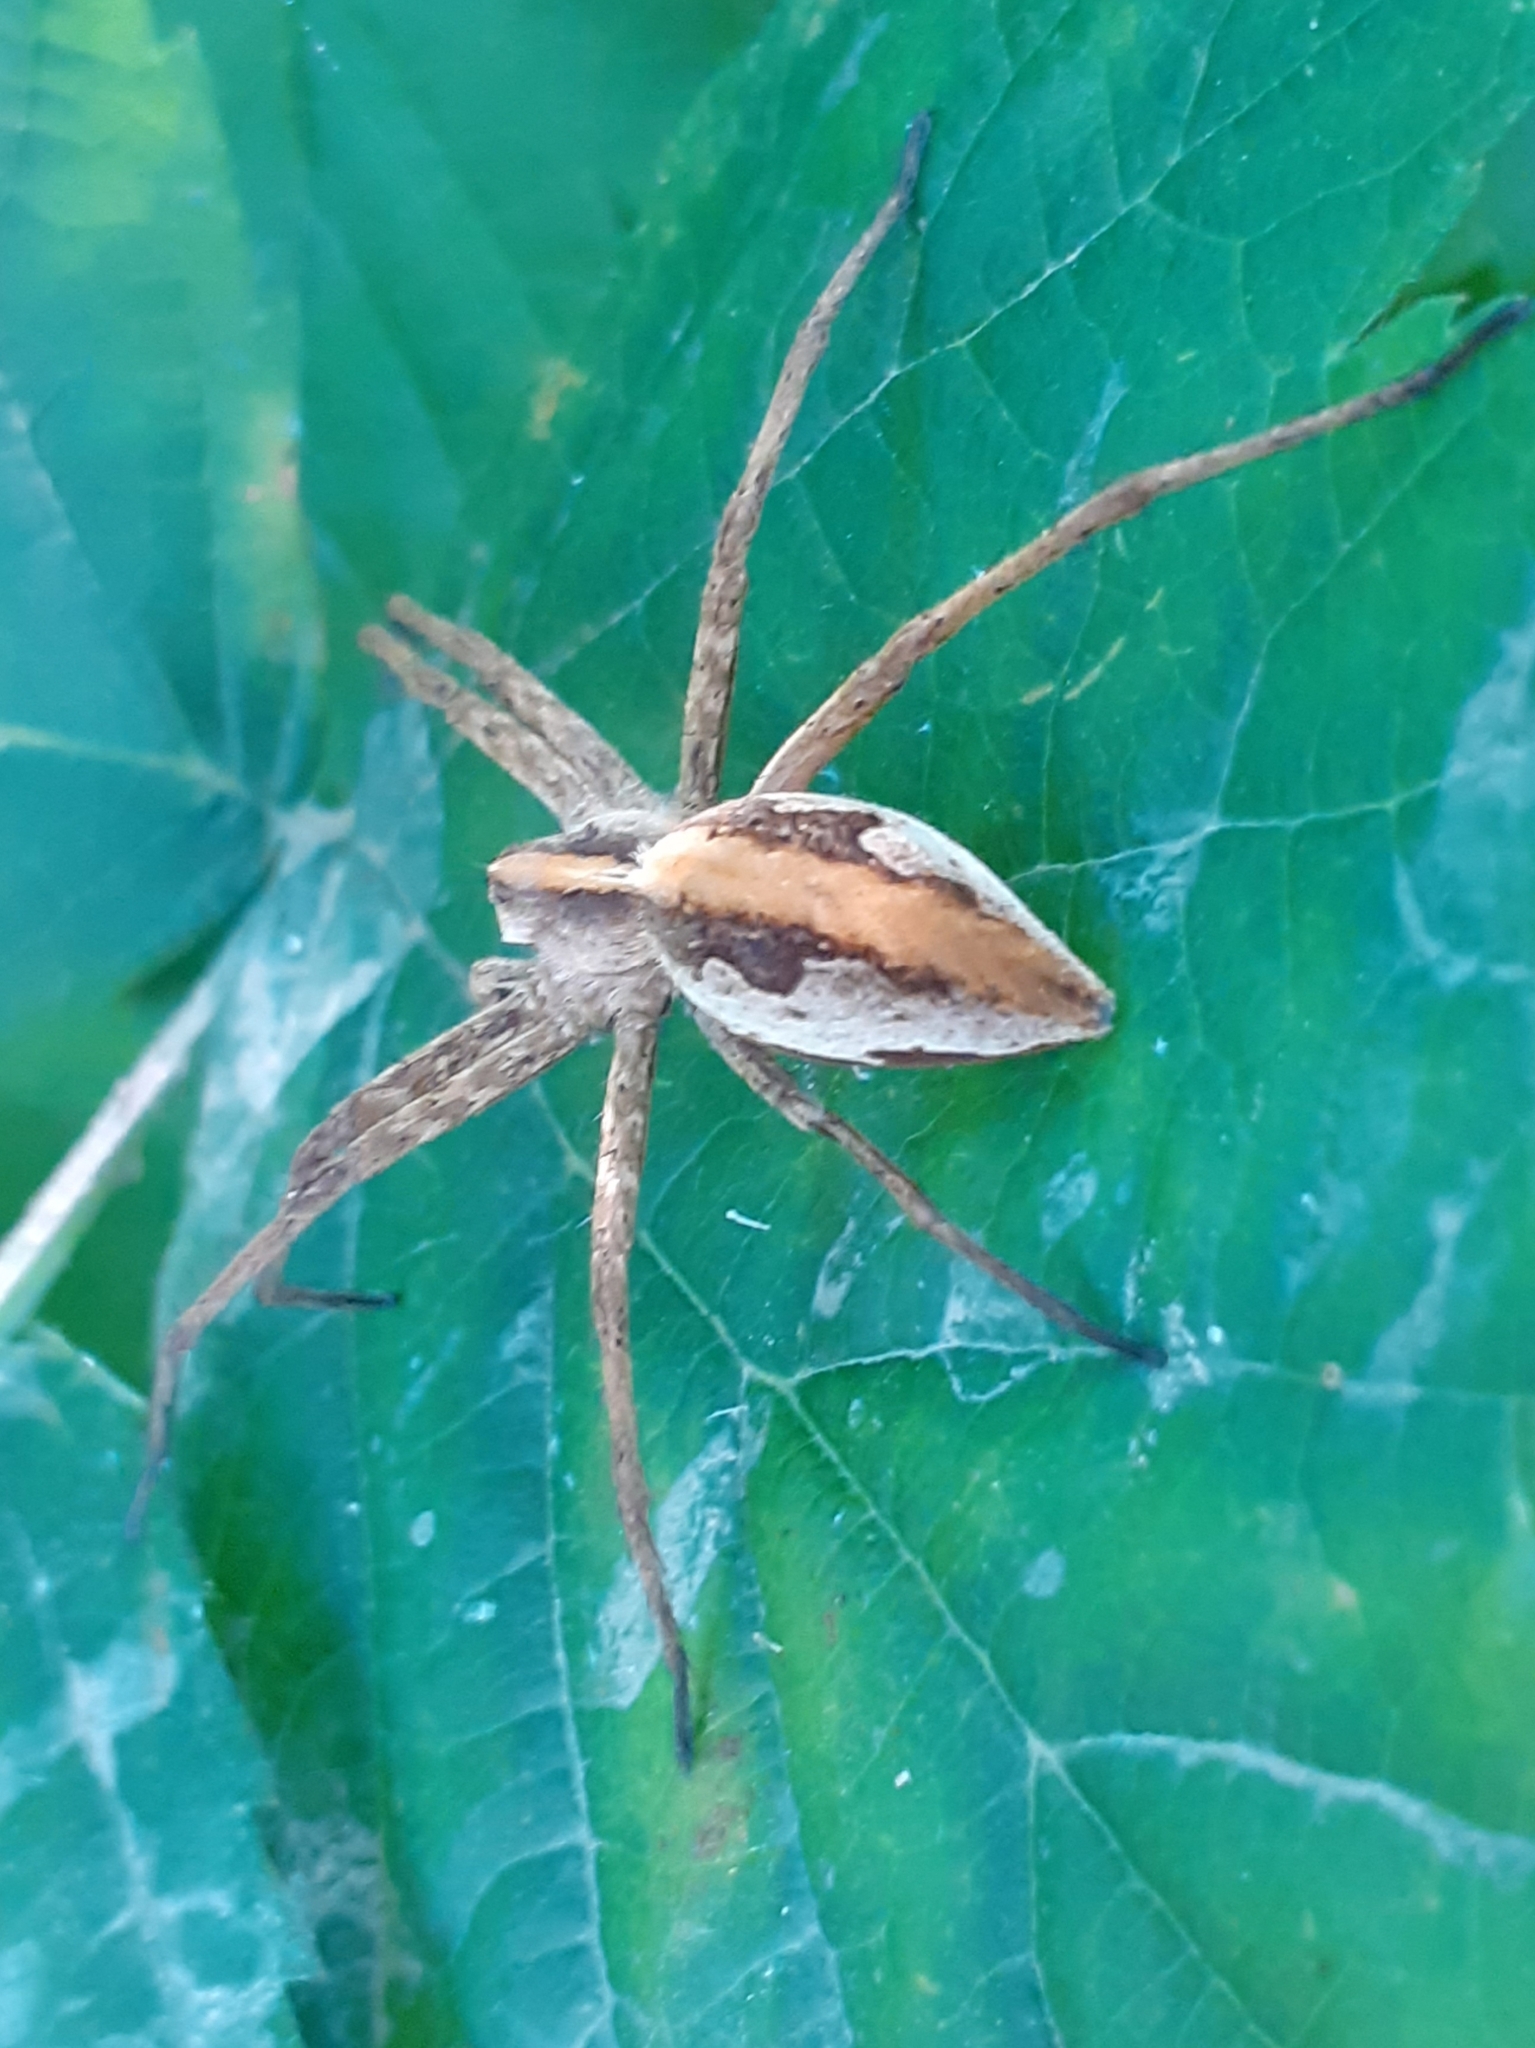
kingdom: Animalia
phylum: Arthropoda
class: Arachnida
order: Araneae
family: Pisauridae
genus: Pisaura
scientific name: Pisaura mirabilis
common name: Tent spider
